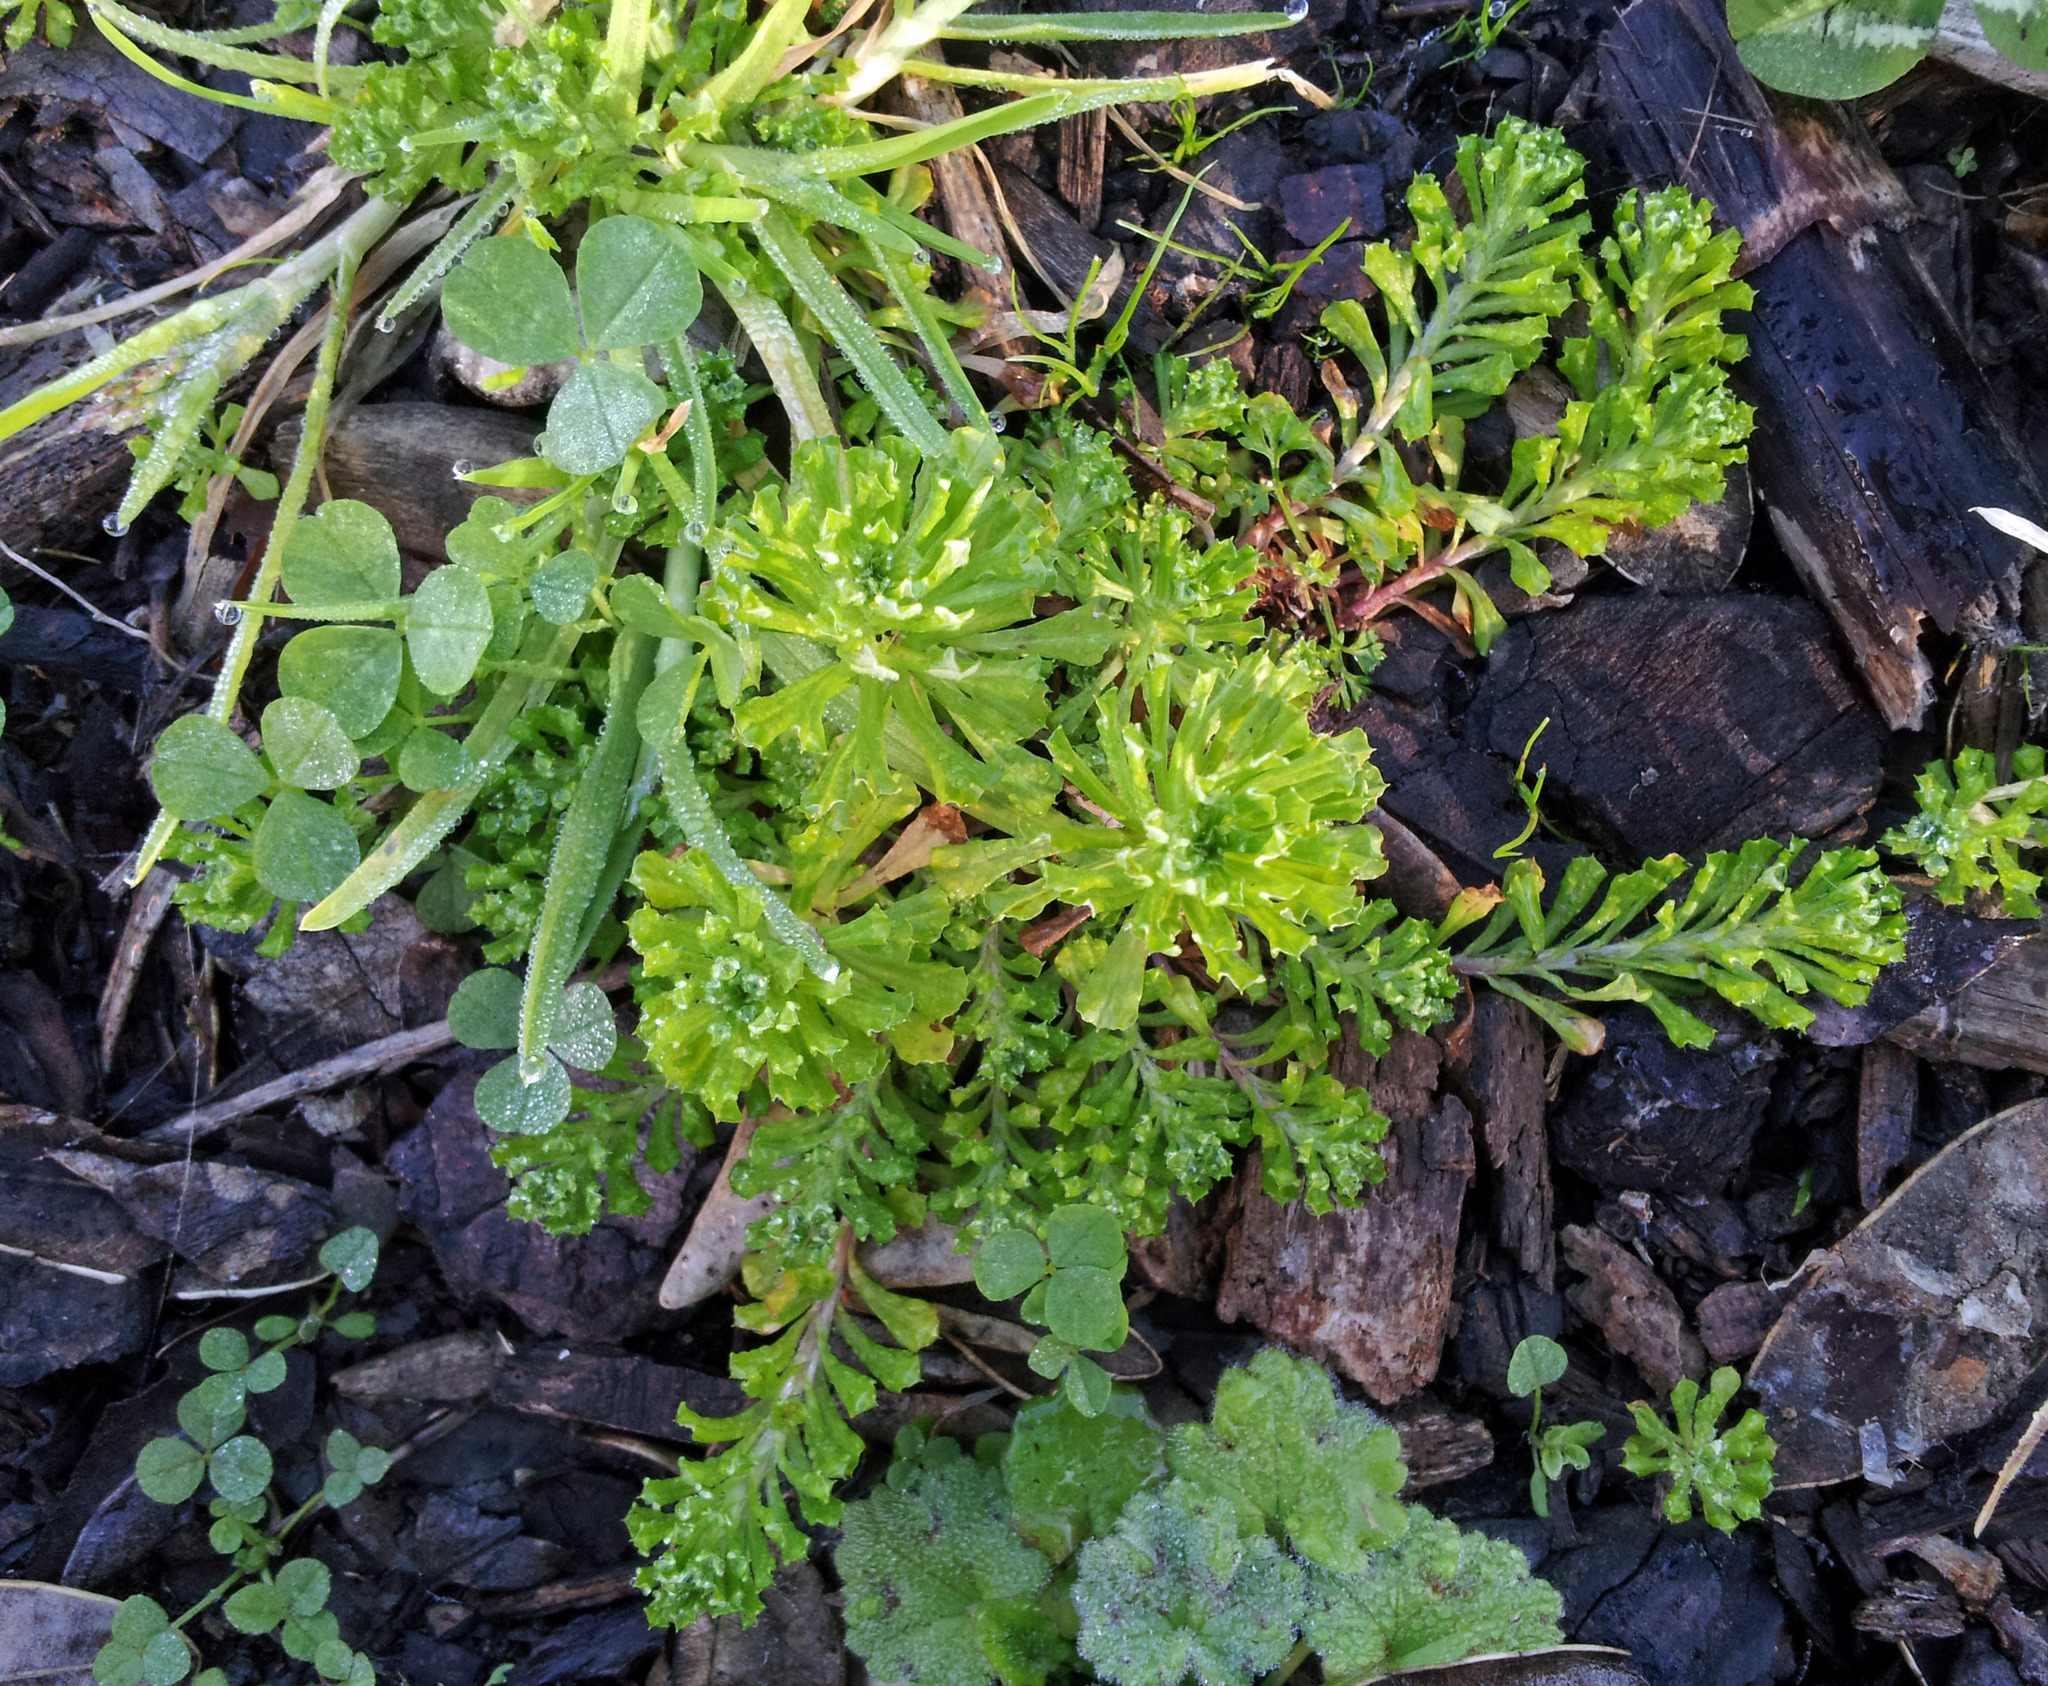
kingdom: Plantae
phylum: Tracheophyta
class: Magnoliopsida
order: Asterales
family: Asteraceae
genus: Facelis
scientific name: Facelis retusa
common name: Annual trampweed
